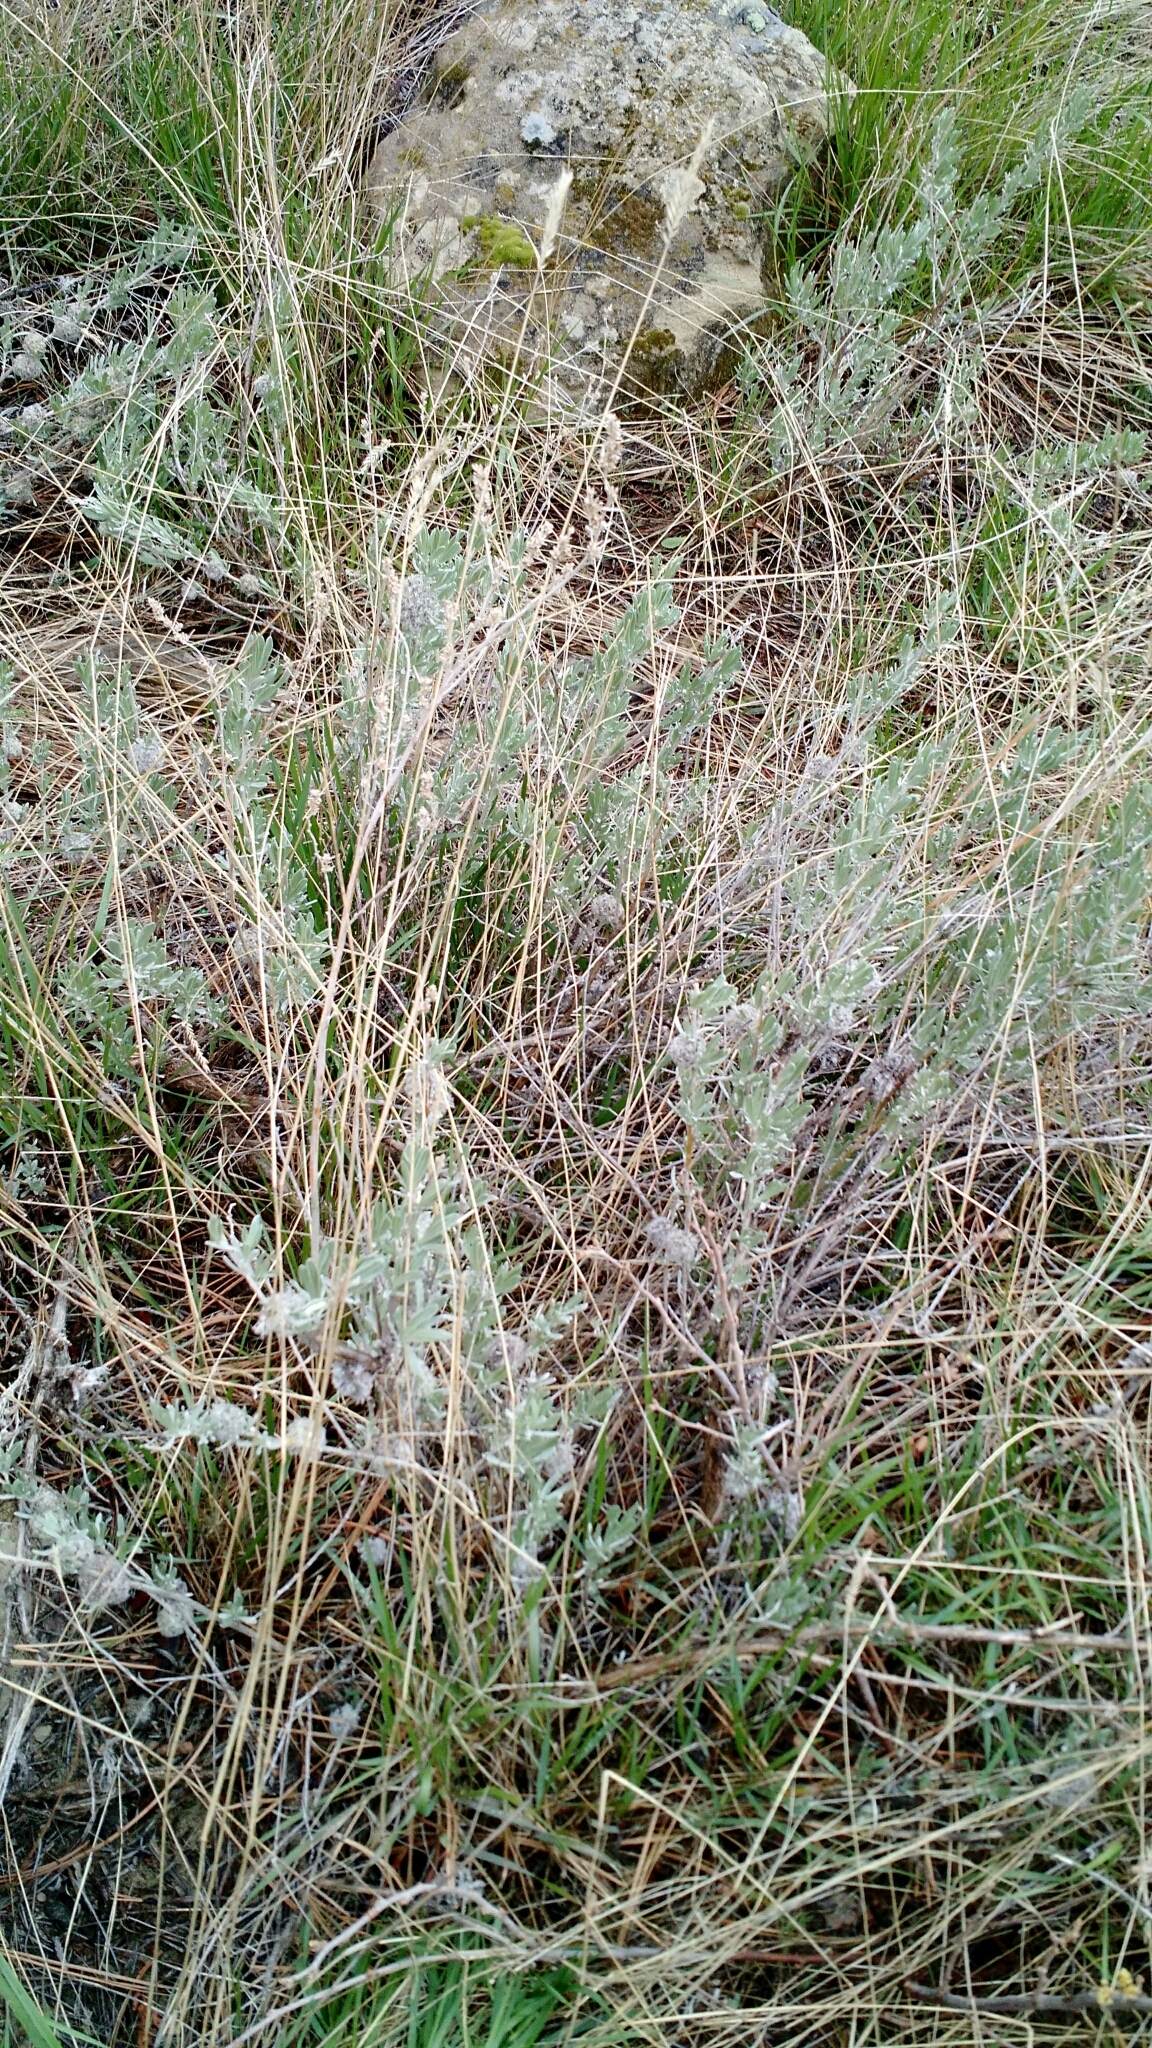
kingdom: Plantae
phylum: Tracheophyta
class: Magnoliopsida
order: Asterales
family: Asteraceae
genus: Artemisia
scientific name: Artemisia cana
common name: Silver sagebrush
